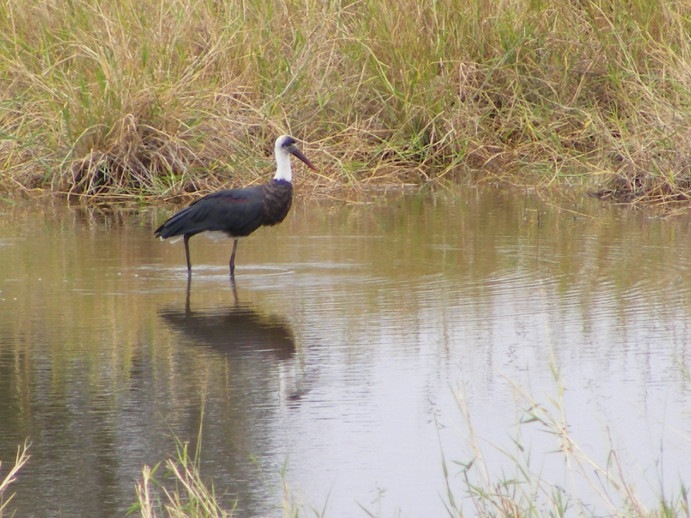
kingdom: Animalia
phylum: Chordata
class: Aves
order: Ciconiiformes
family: Ciconiidae
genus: Ciconia
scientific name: Ciconia microscelis
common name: African woollyneck
